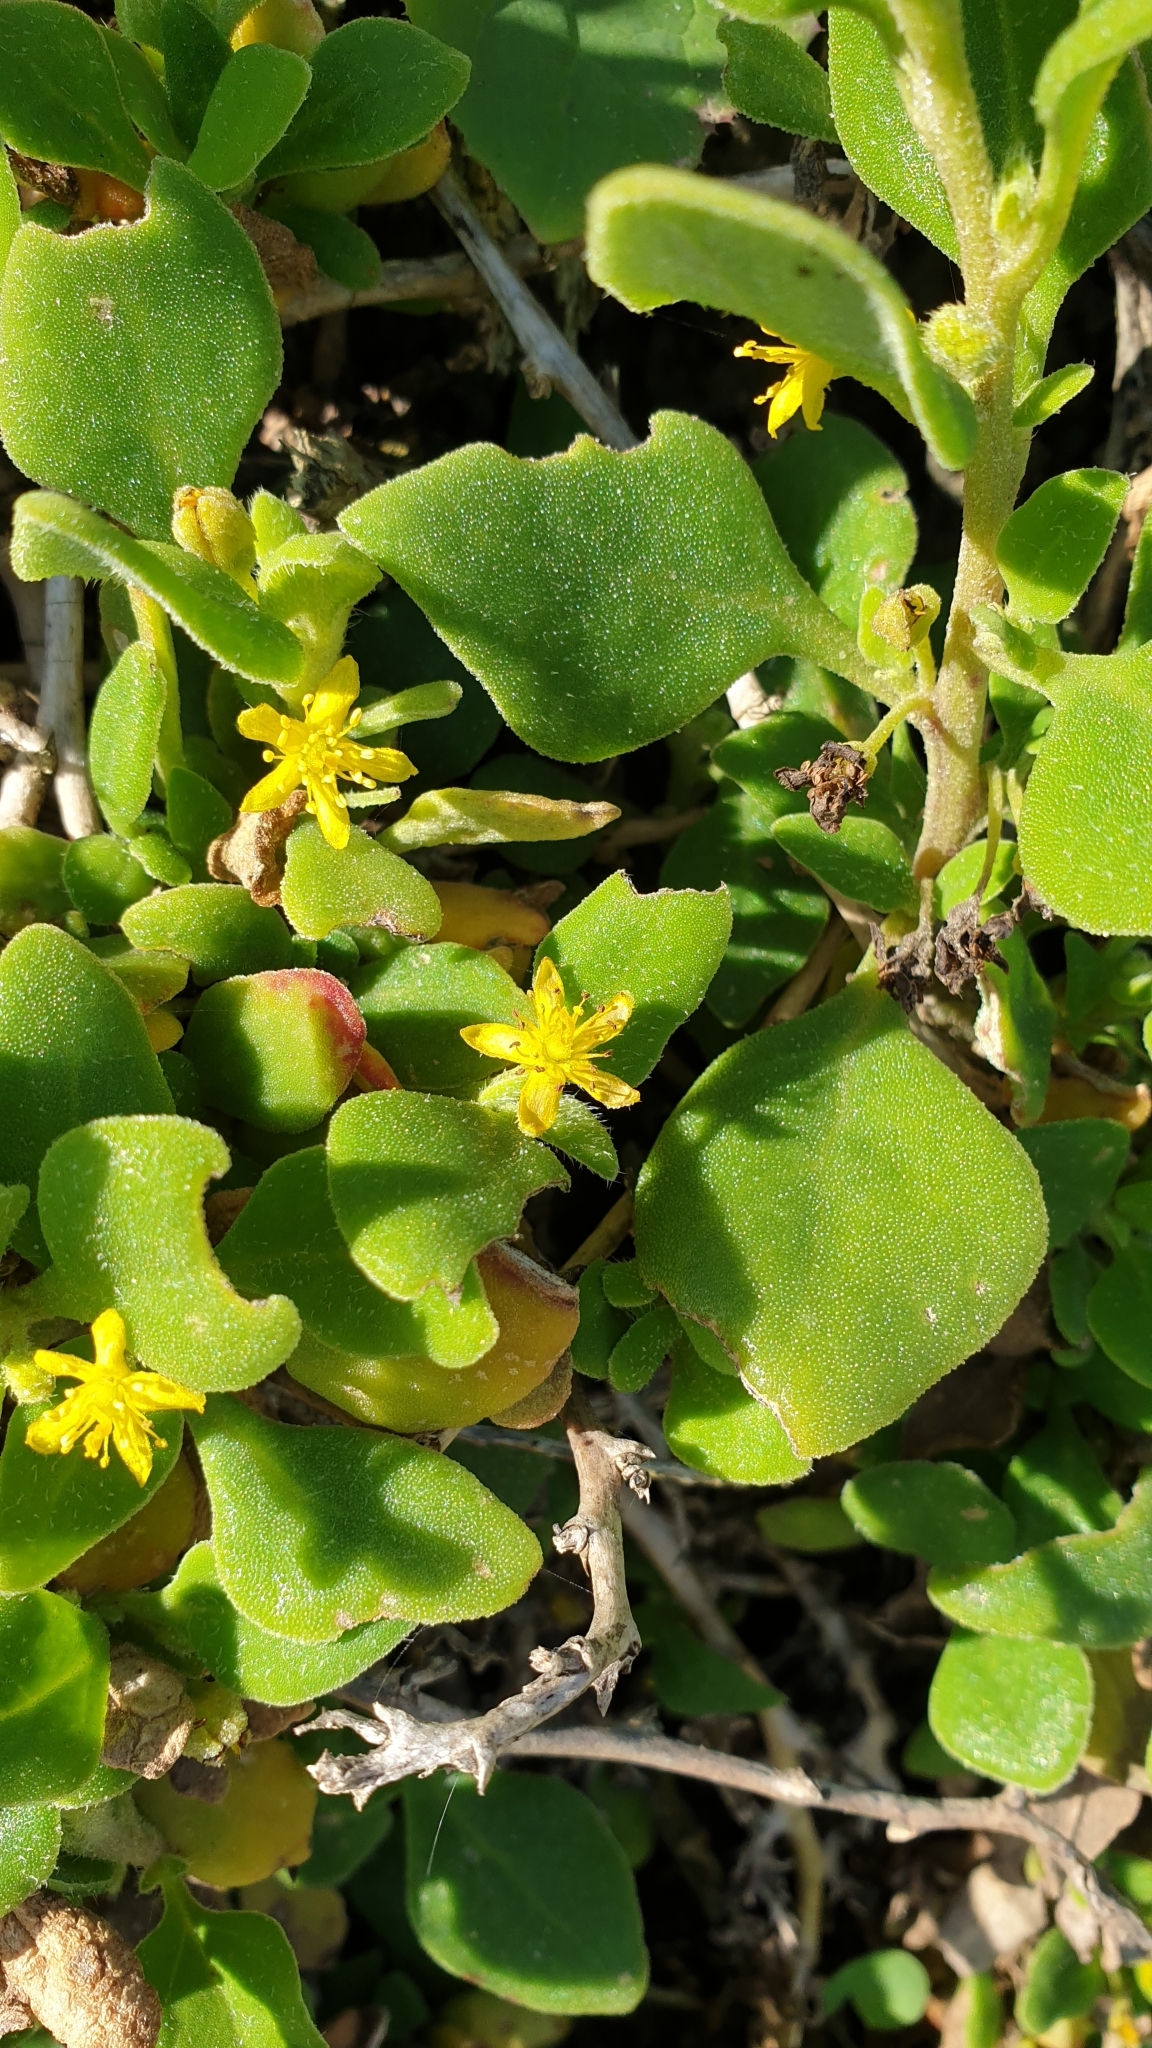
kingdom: Plantae
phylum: Tracheophyta
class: Magnoliopsida
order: Caryophyllales
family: Aizoaceae
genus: Tetragonia
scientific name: Tetragonia implexicoma
